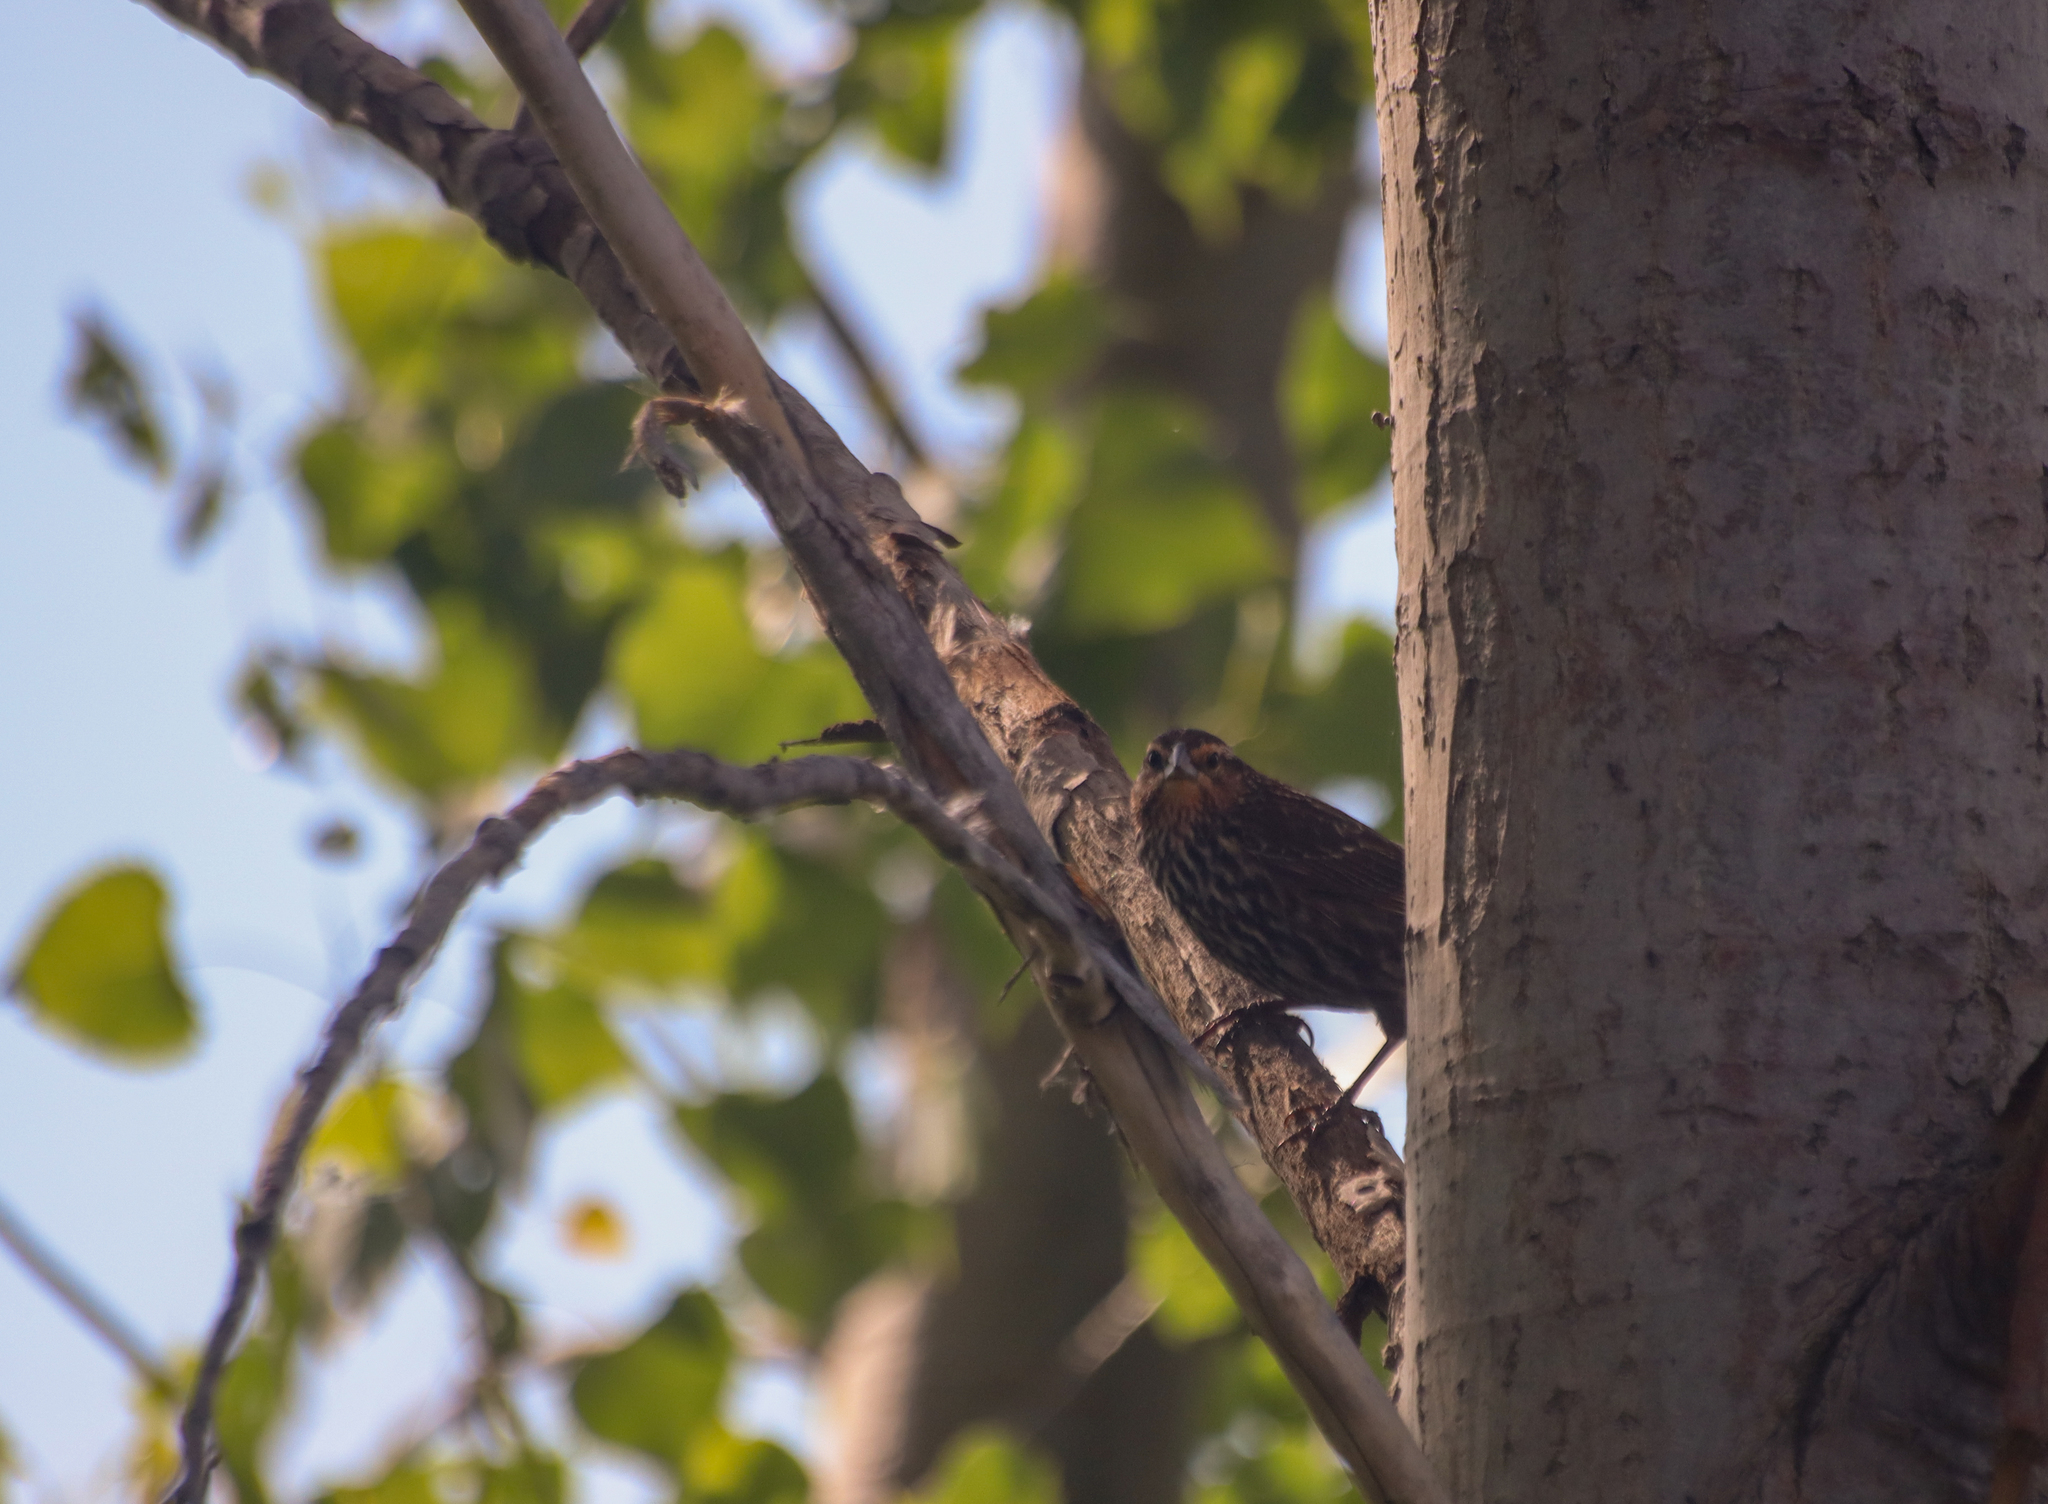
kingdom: Animalia
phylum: Chordata
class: Aves
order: Passeriformes
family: Icteridae
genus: Agelaius
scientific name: Agelaius phoeniceus
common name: Red-winged blackbird
